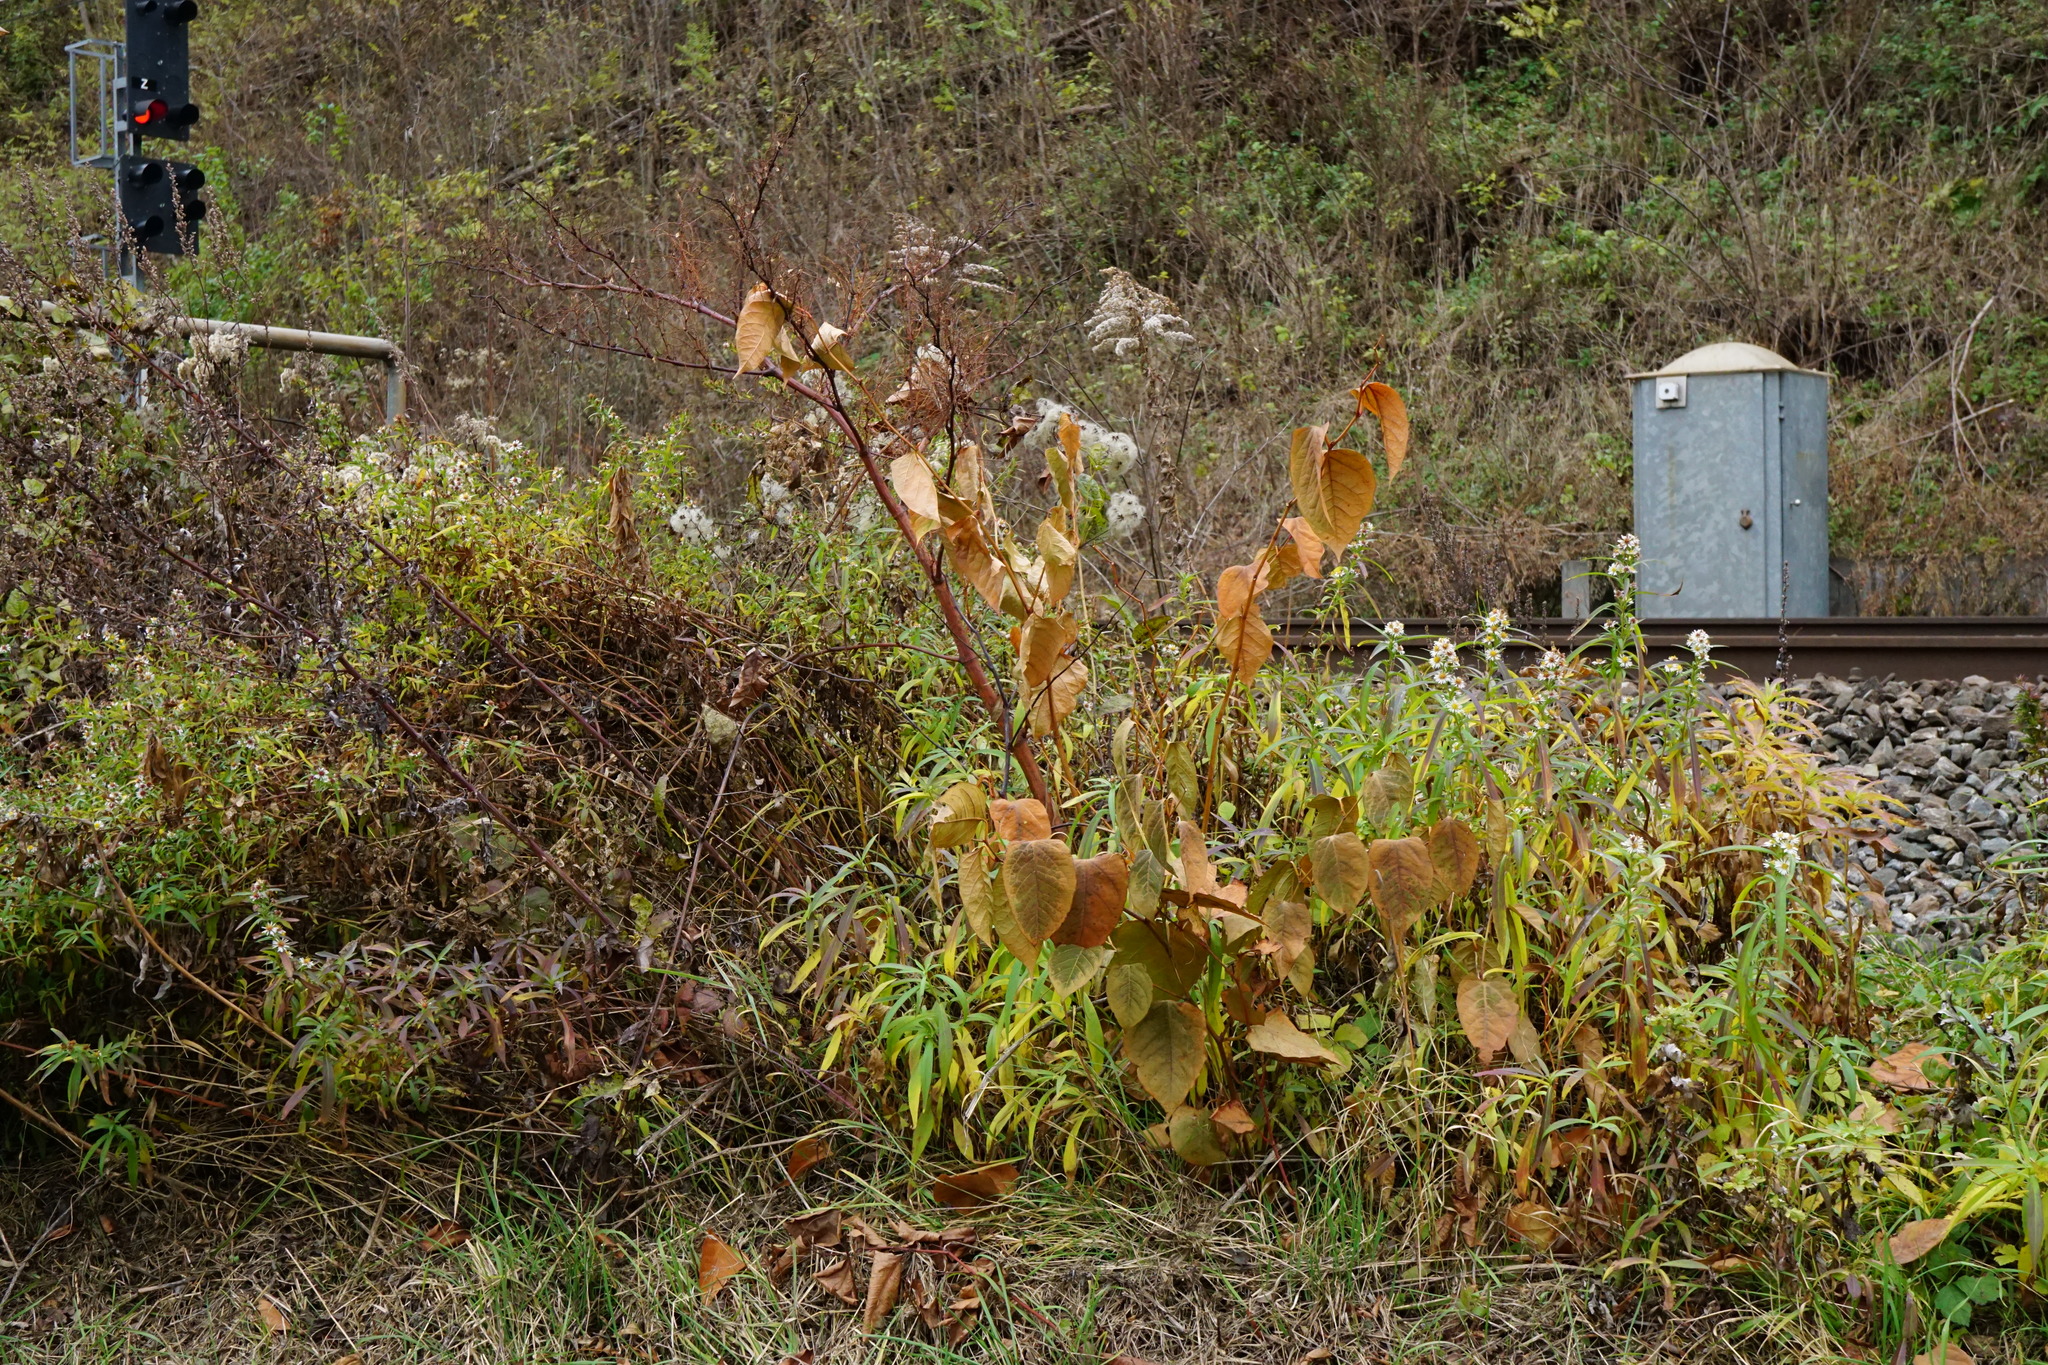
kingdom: Plantae
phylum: Tracheophyta
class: Magnoliopsida
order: Caryophyllales
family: Polygonaceae
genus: Reynoutria
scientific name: Reynoutria japonica
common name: Japanese knotweed
